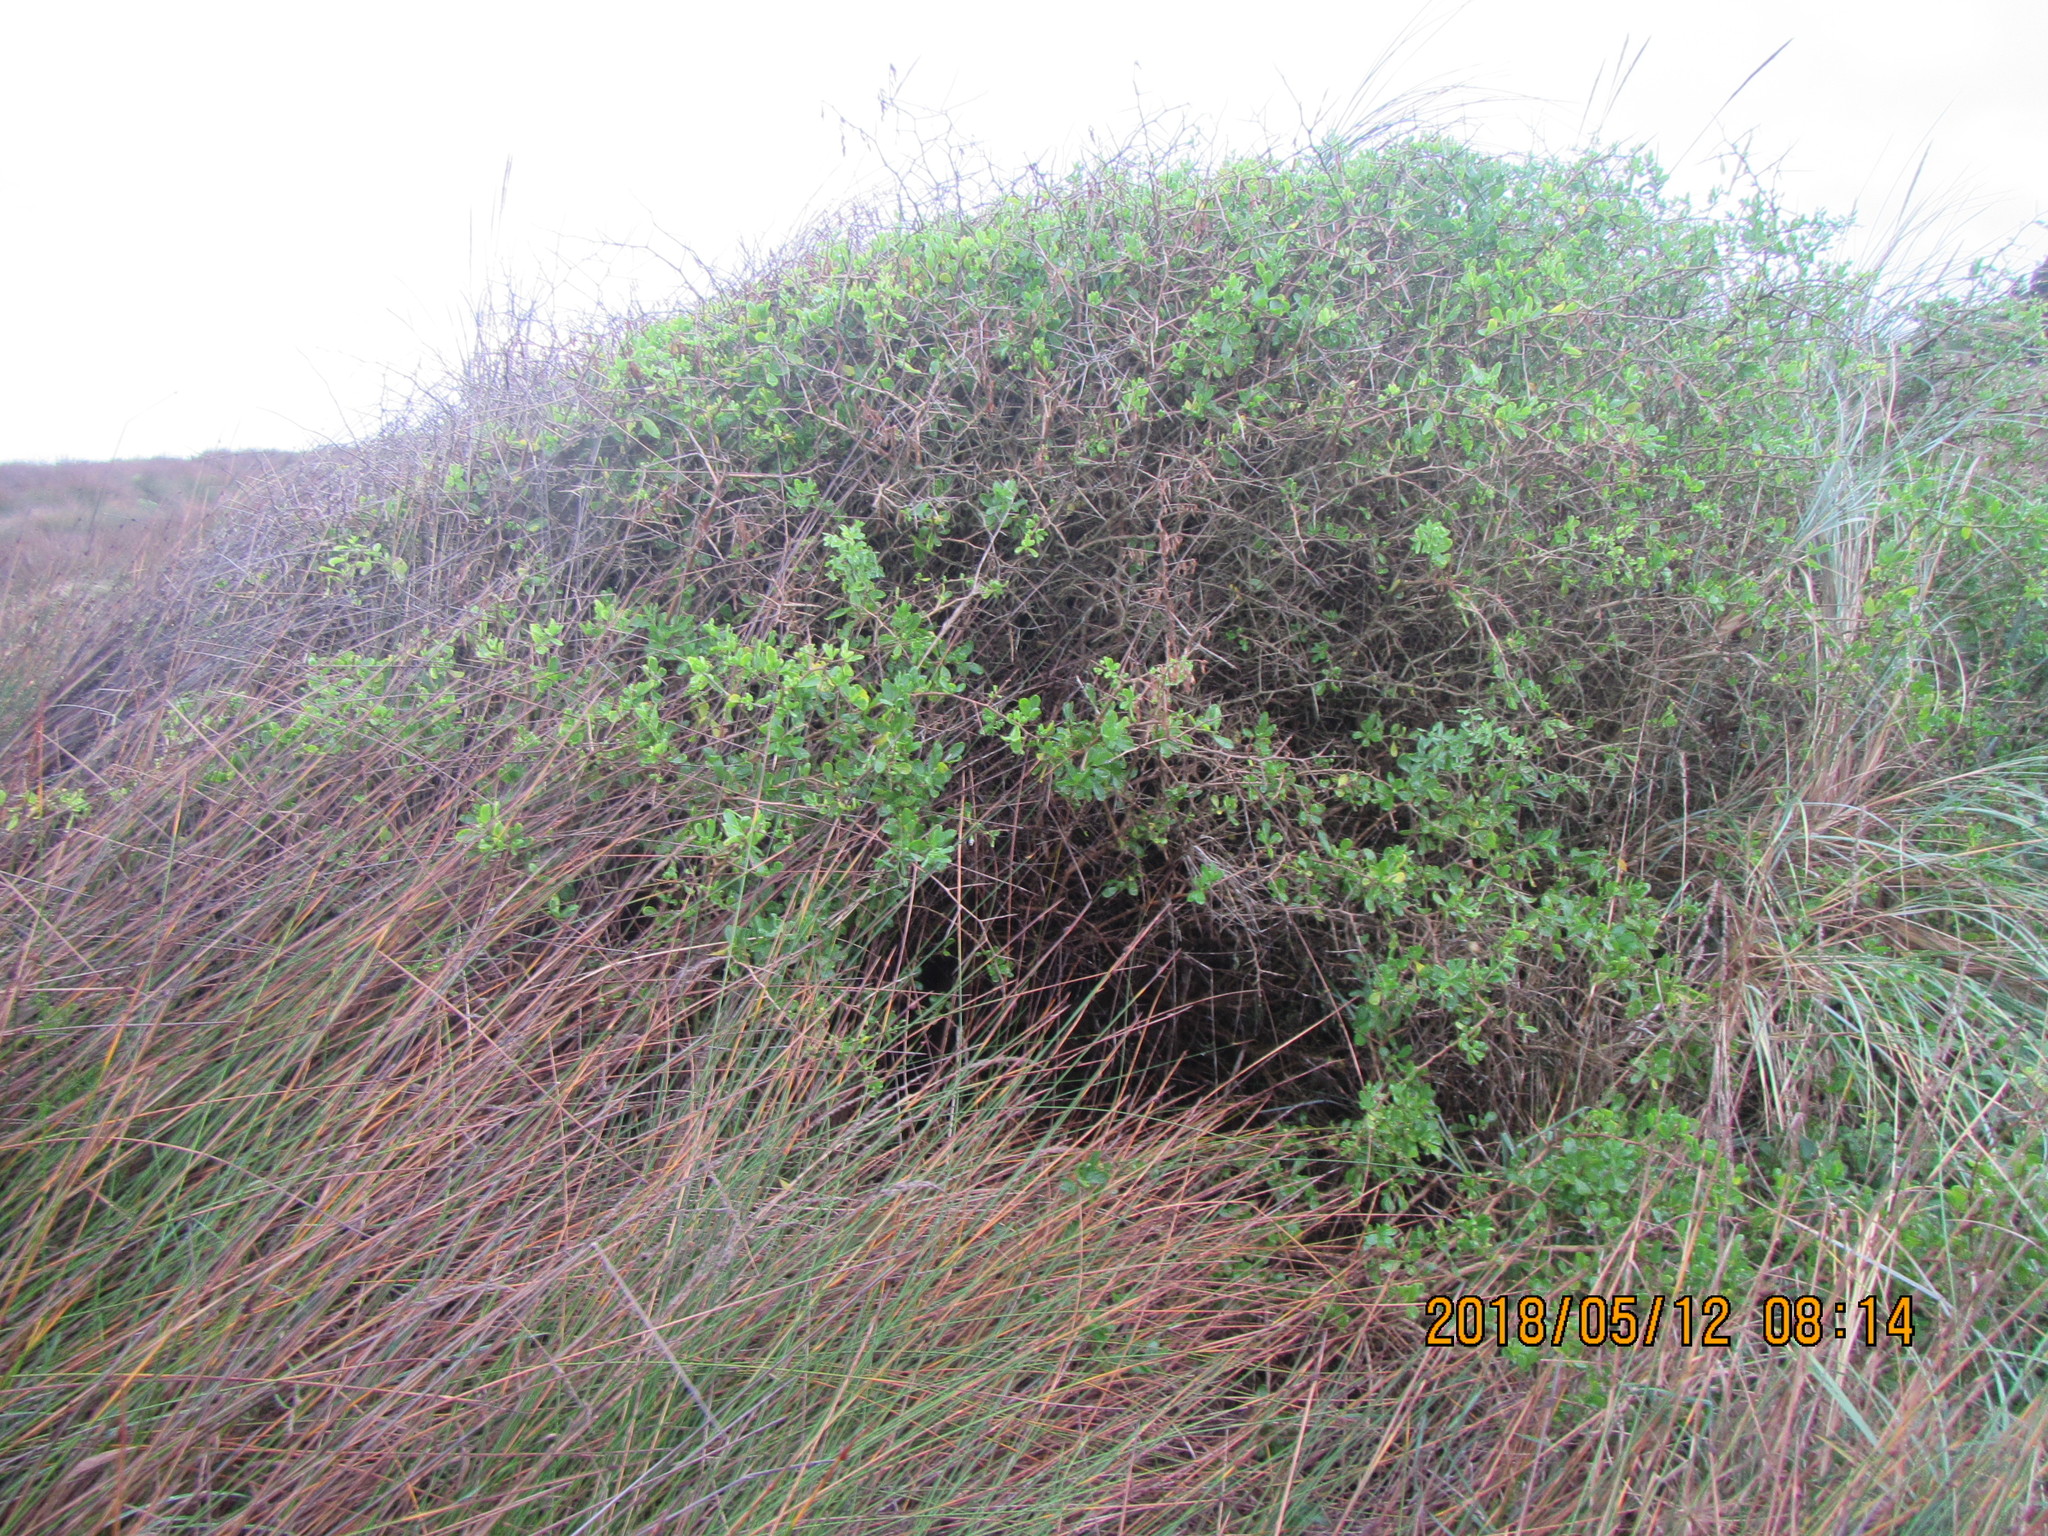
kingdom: Plantae
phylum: Tracheophyta
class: Magnoliopsida
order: Solanales
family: Solanaceae
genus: Lycium
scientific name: Lycium ferocissimum
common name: African boxthorn
